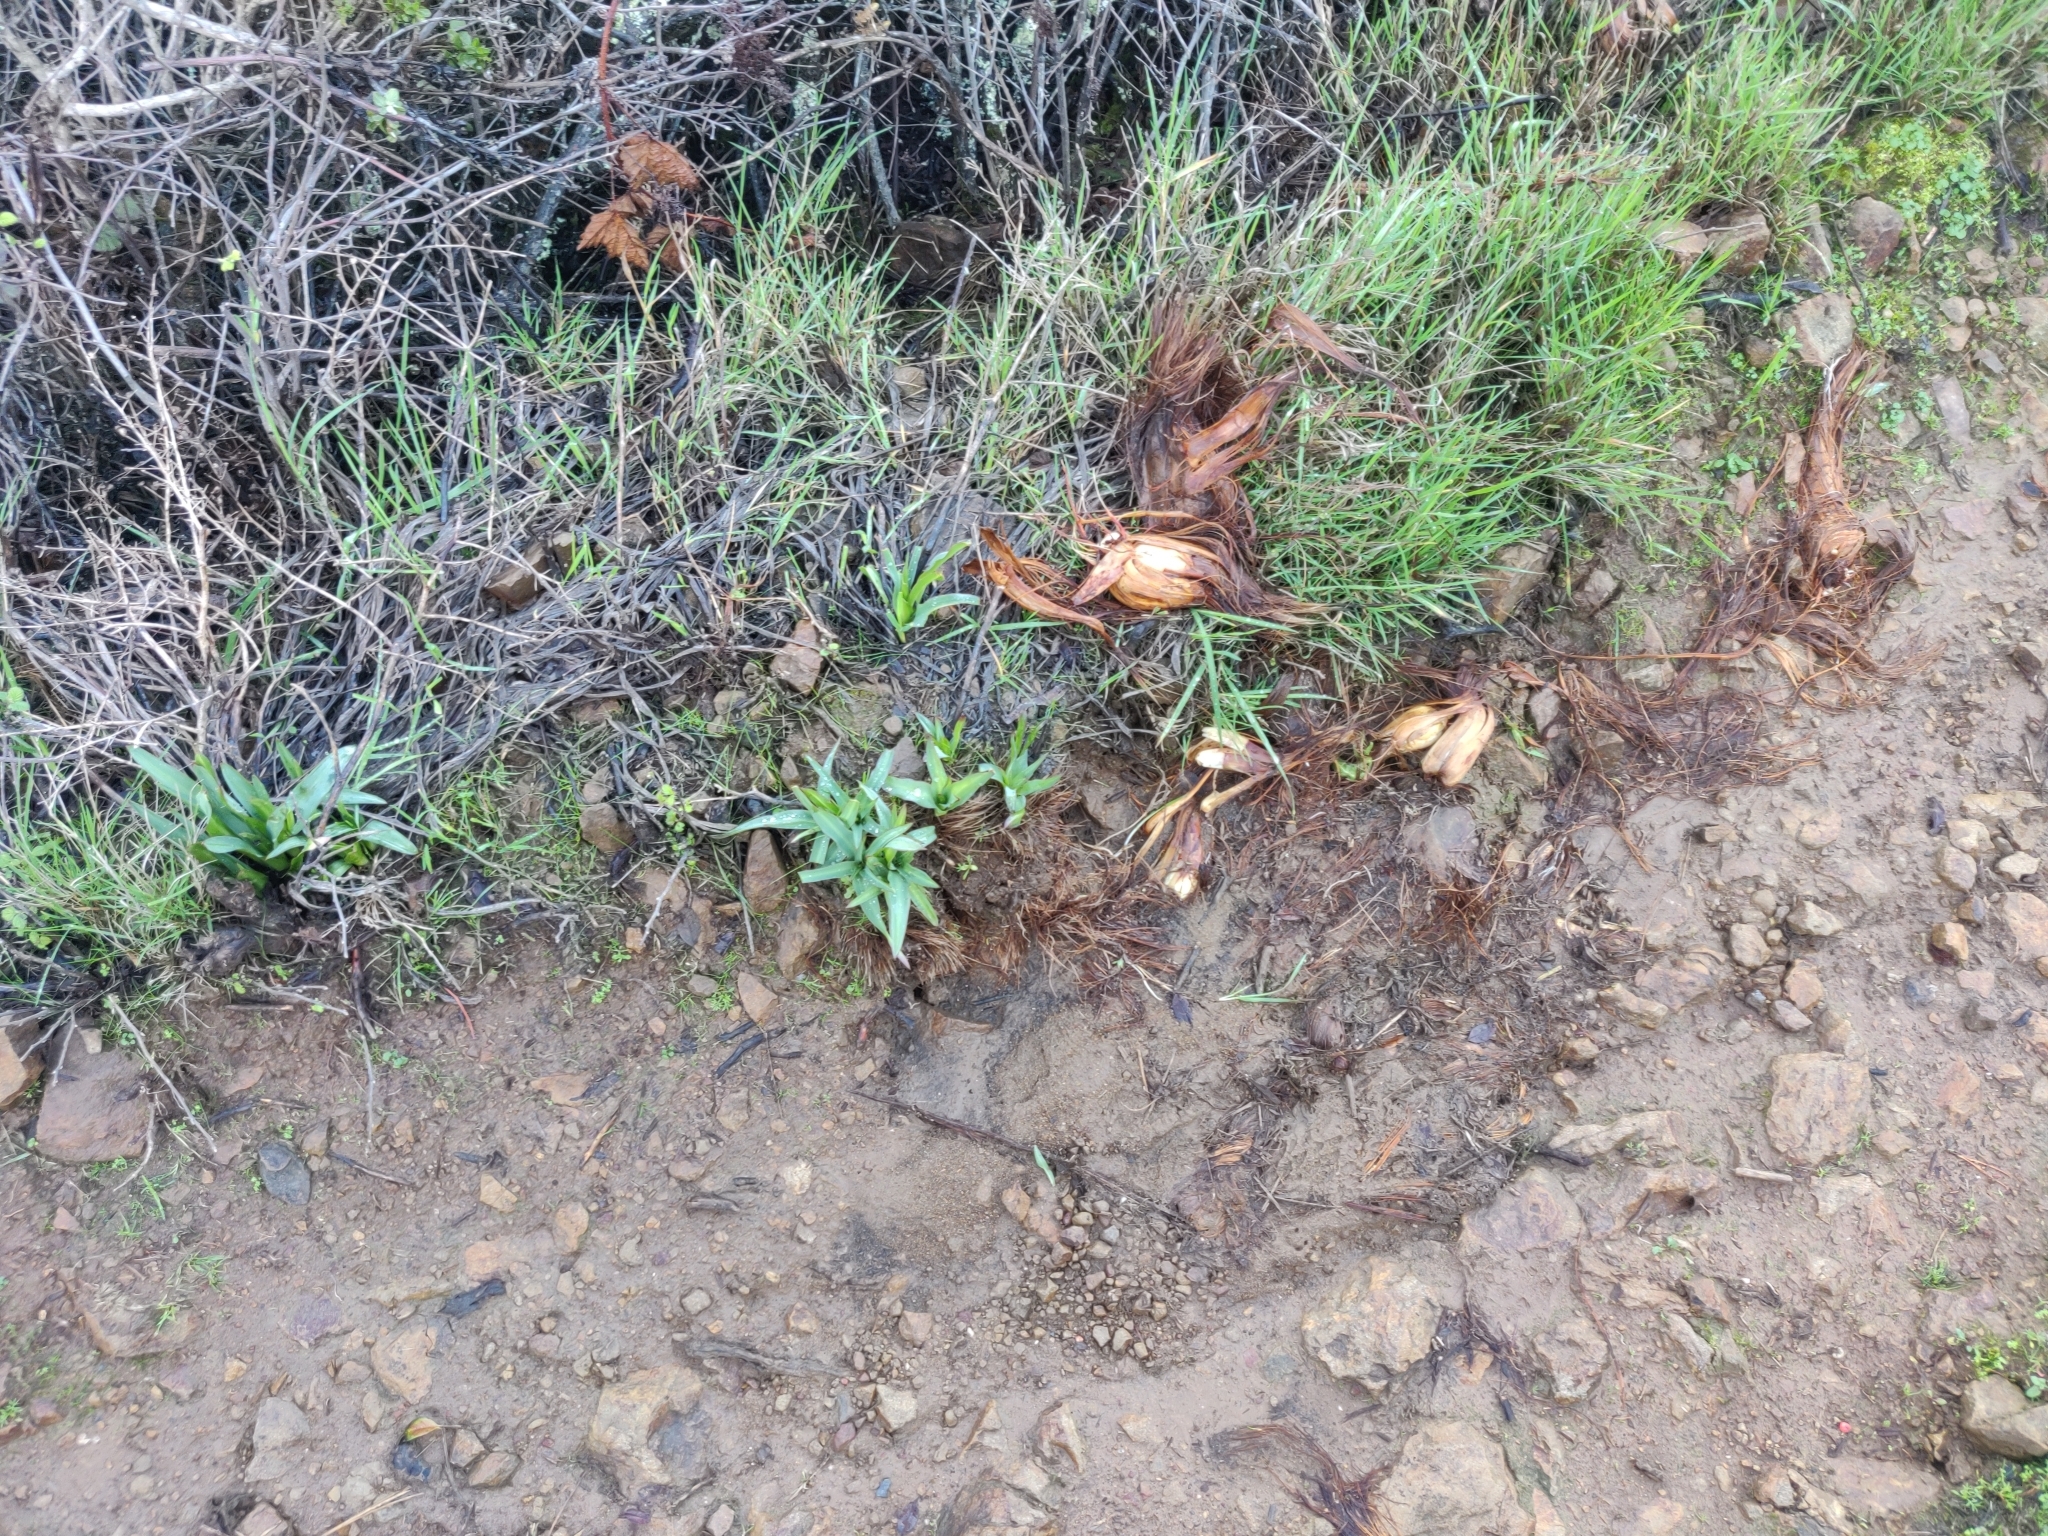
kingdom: Plantae
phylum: Tracheophyta
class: Liliopsida
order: Asparagales
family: Asparagaceae
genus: Chlorogalum
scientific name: Chlorogalum pomeridianum
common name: Amole
